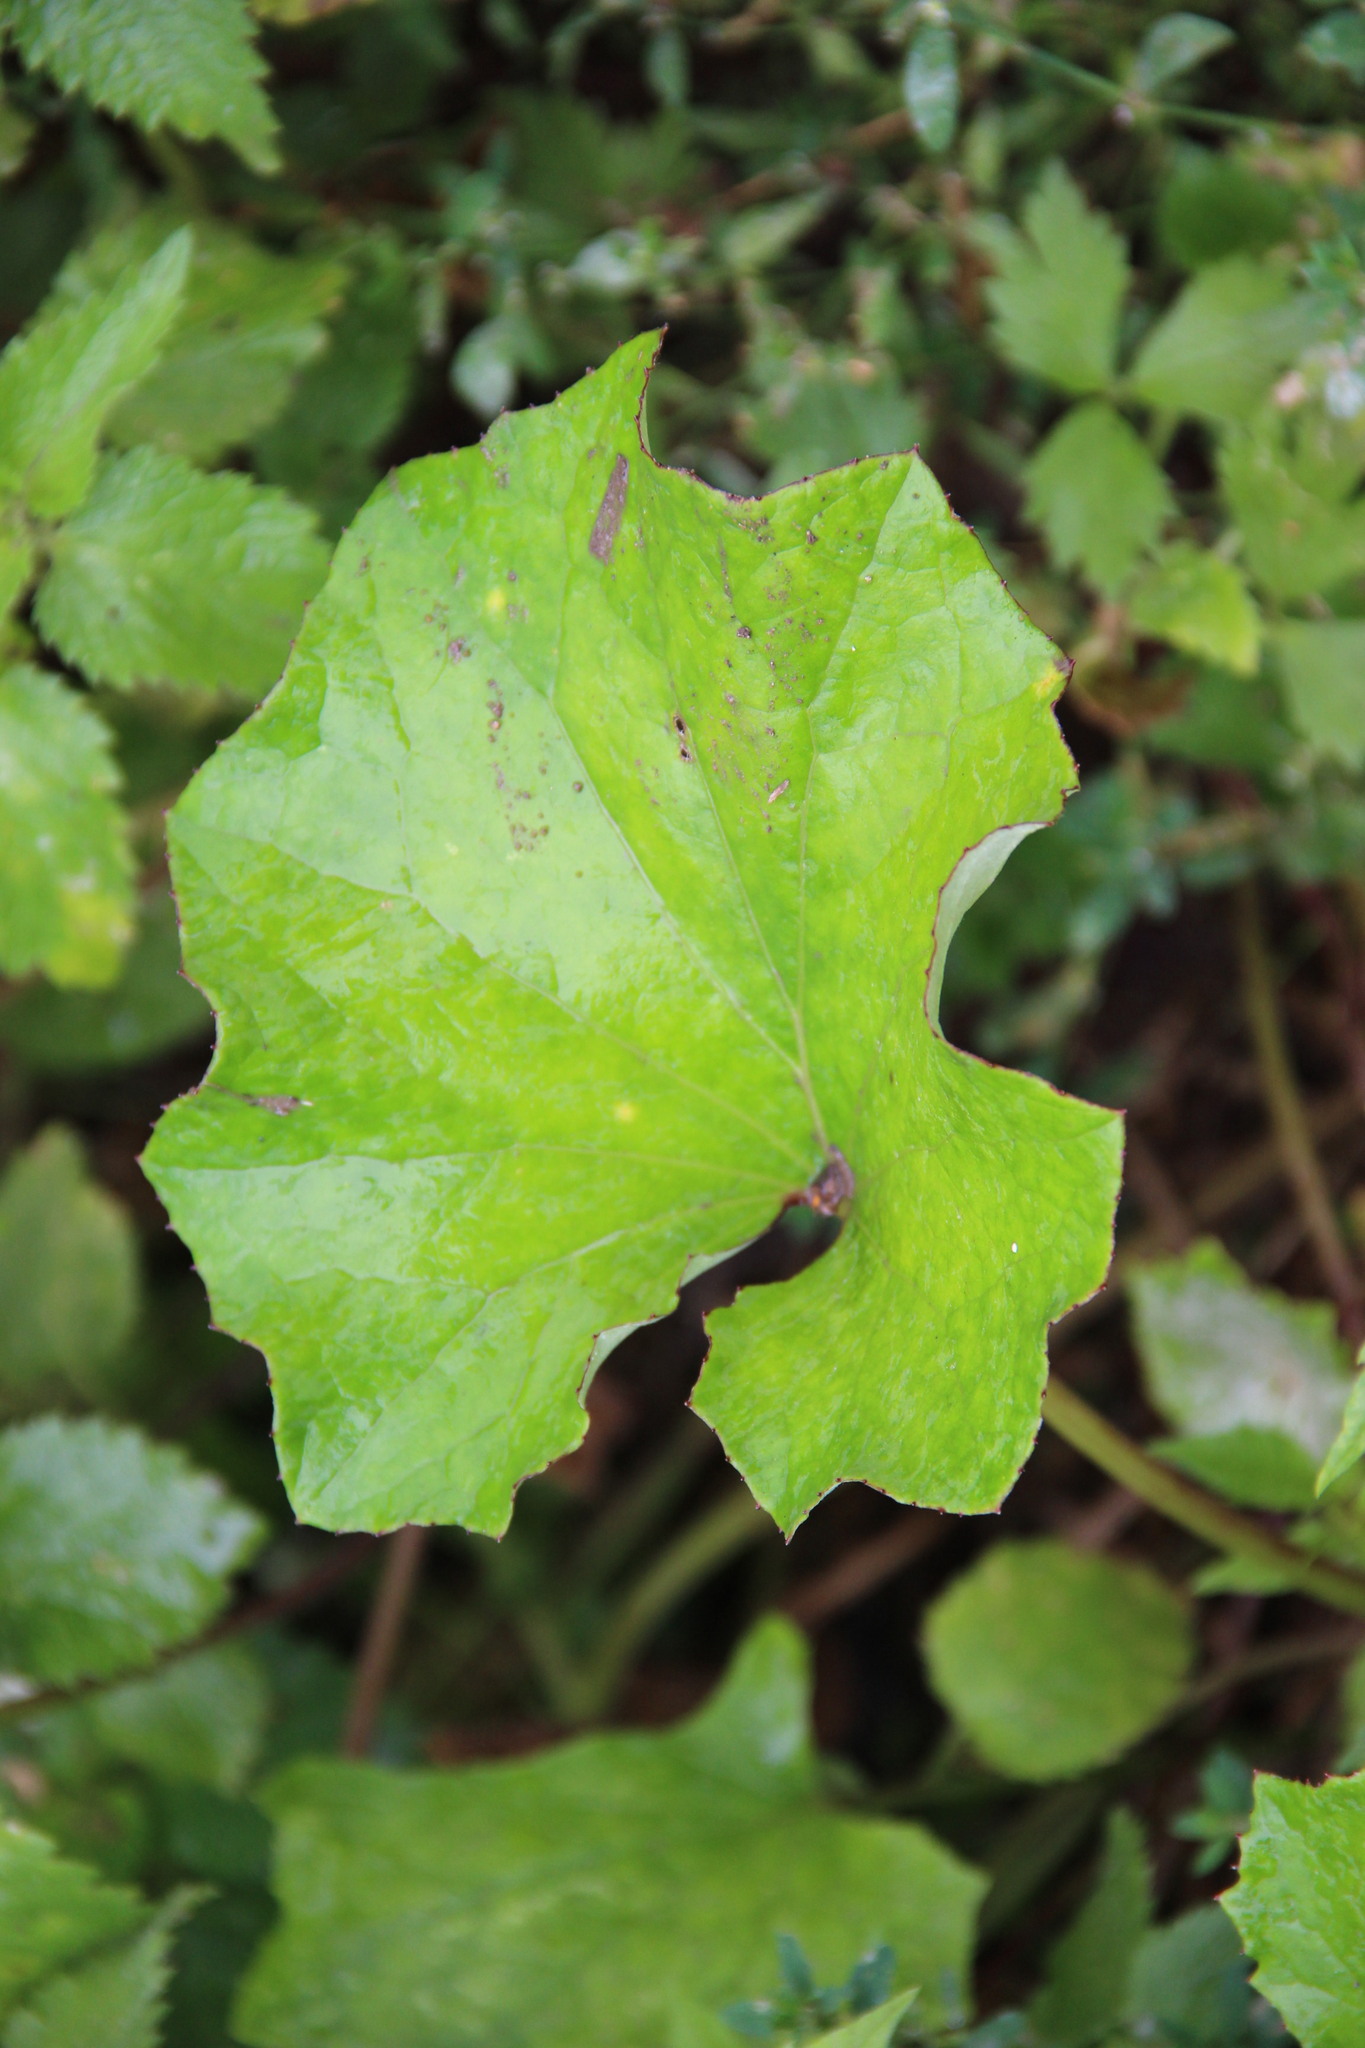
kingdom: Plantae
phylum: Tracheophyta
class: Magnoliopsida
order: Asterales
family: Asteraceae
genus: Tussilago
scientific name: Tussilago farfara
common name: Coltsfoot
